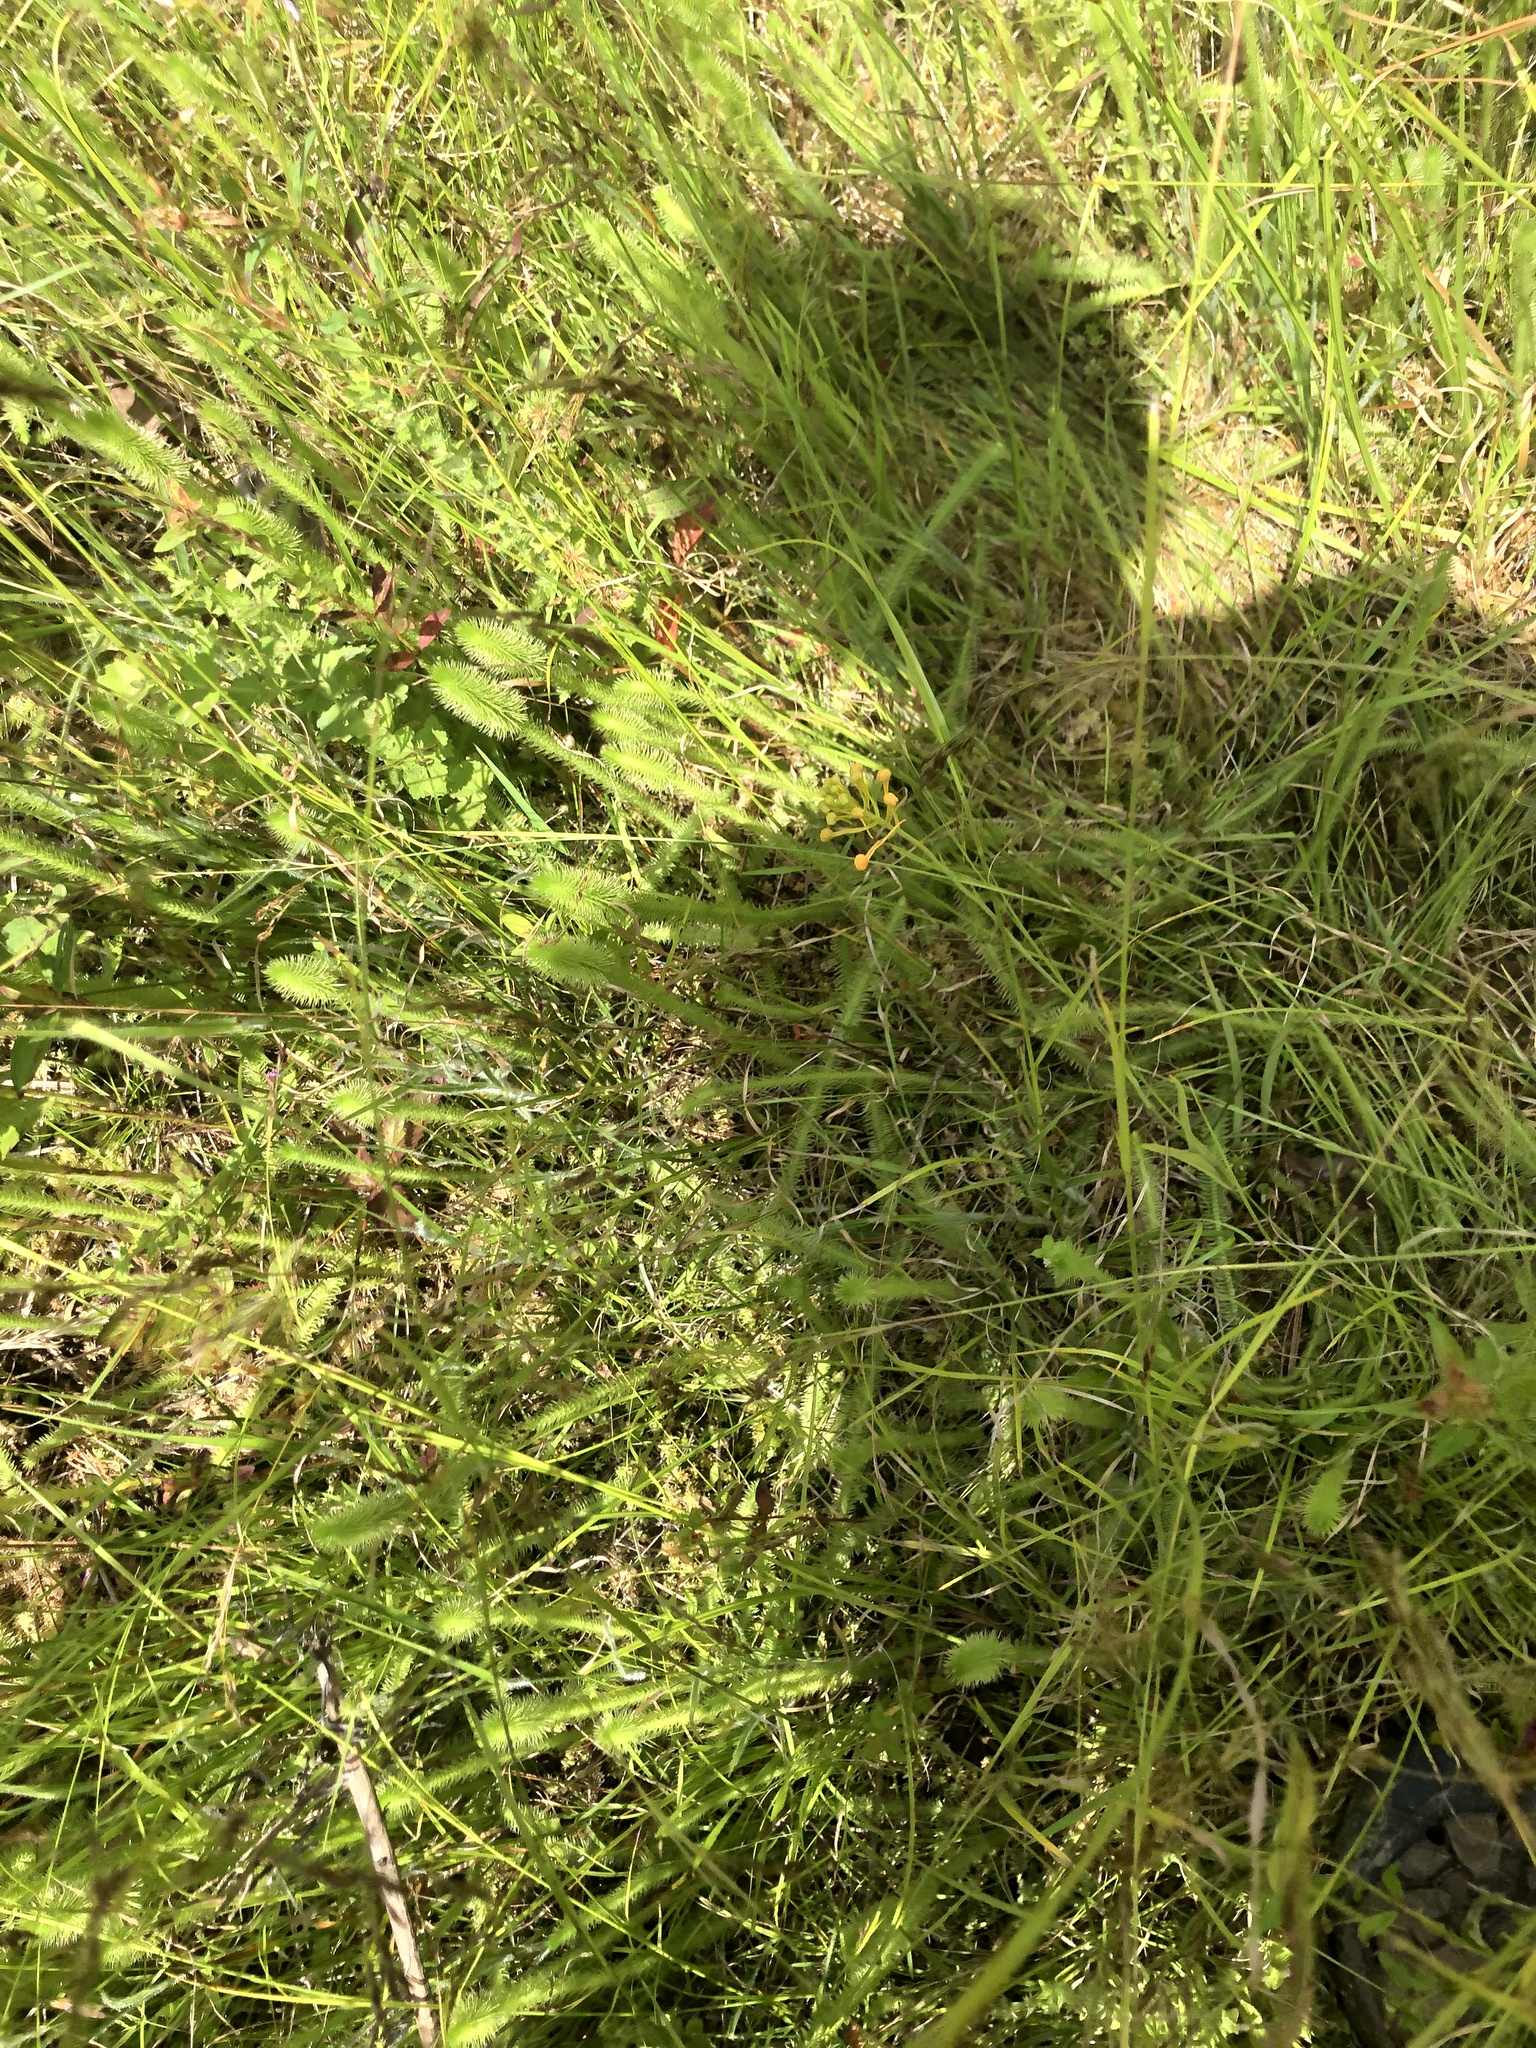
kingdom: Plantae
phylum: Tracheophyta
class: Lycopodiopsida
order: Lycopodiales
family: Lycopodiaceae
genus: Lycopodiella
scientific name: Lycopodiella alopecuroides
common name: Foxtail clubmoss
